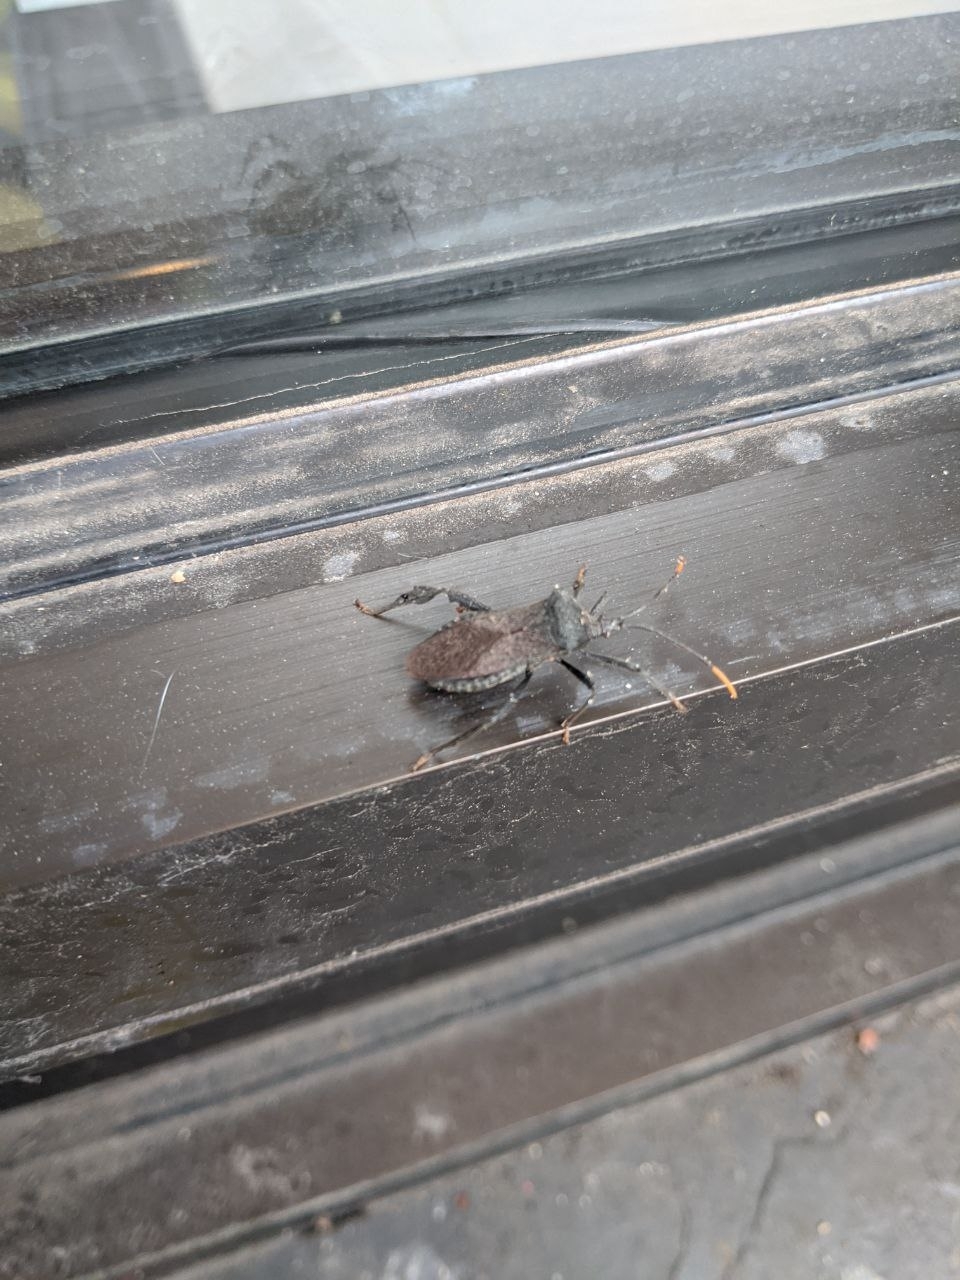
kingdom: Animalia
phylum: Arthropoda
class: Insecta
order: Hemiptera
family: Coreidae
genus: Acanthocephala
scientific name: Acanthocephala terminalis
